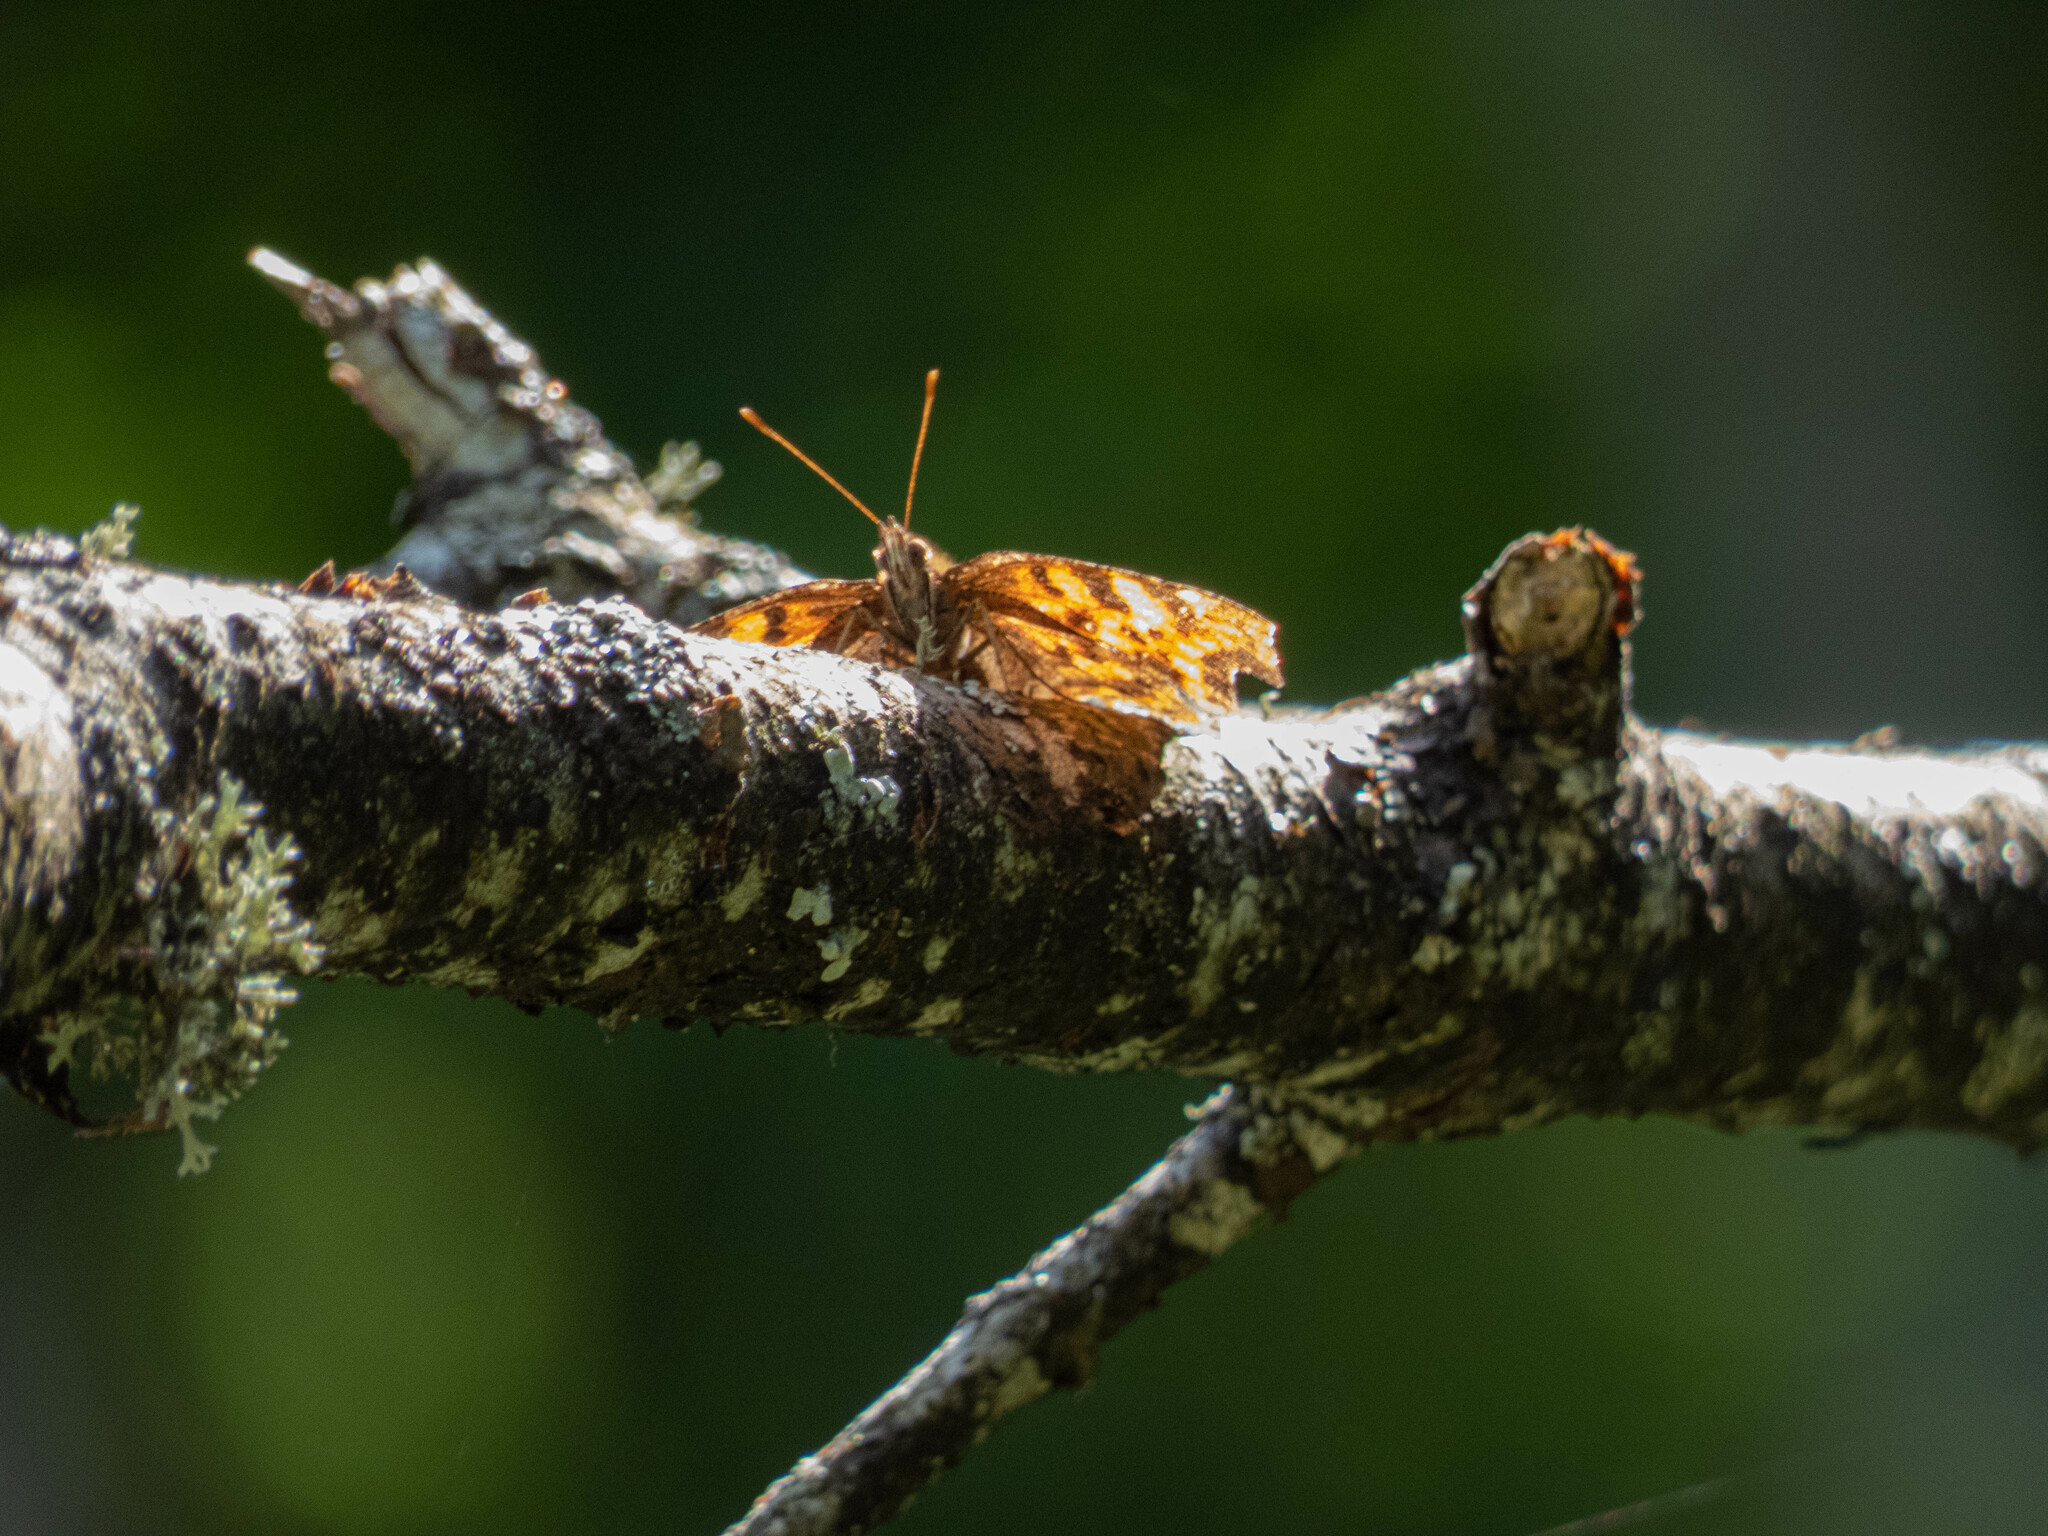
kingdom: Animalia
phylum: Arthropoda
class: Insecta
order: Lepidoptera
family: Nymphalidae
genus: Polygonia
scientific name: Polygonia c-album
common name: Comma
